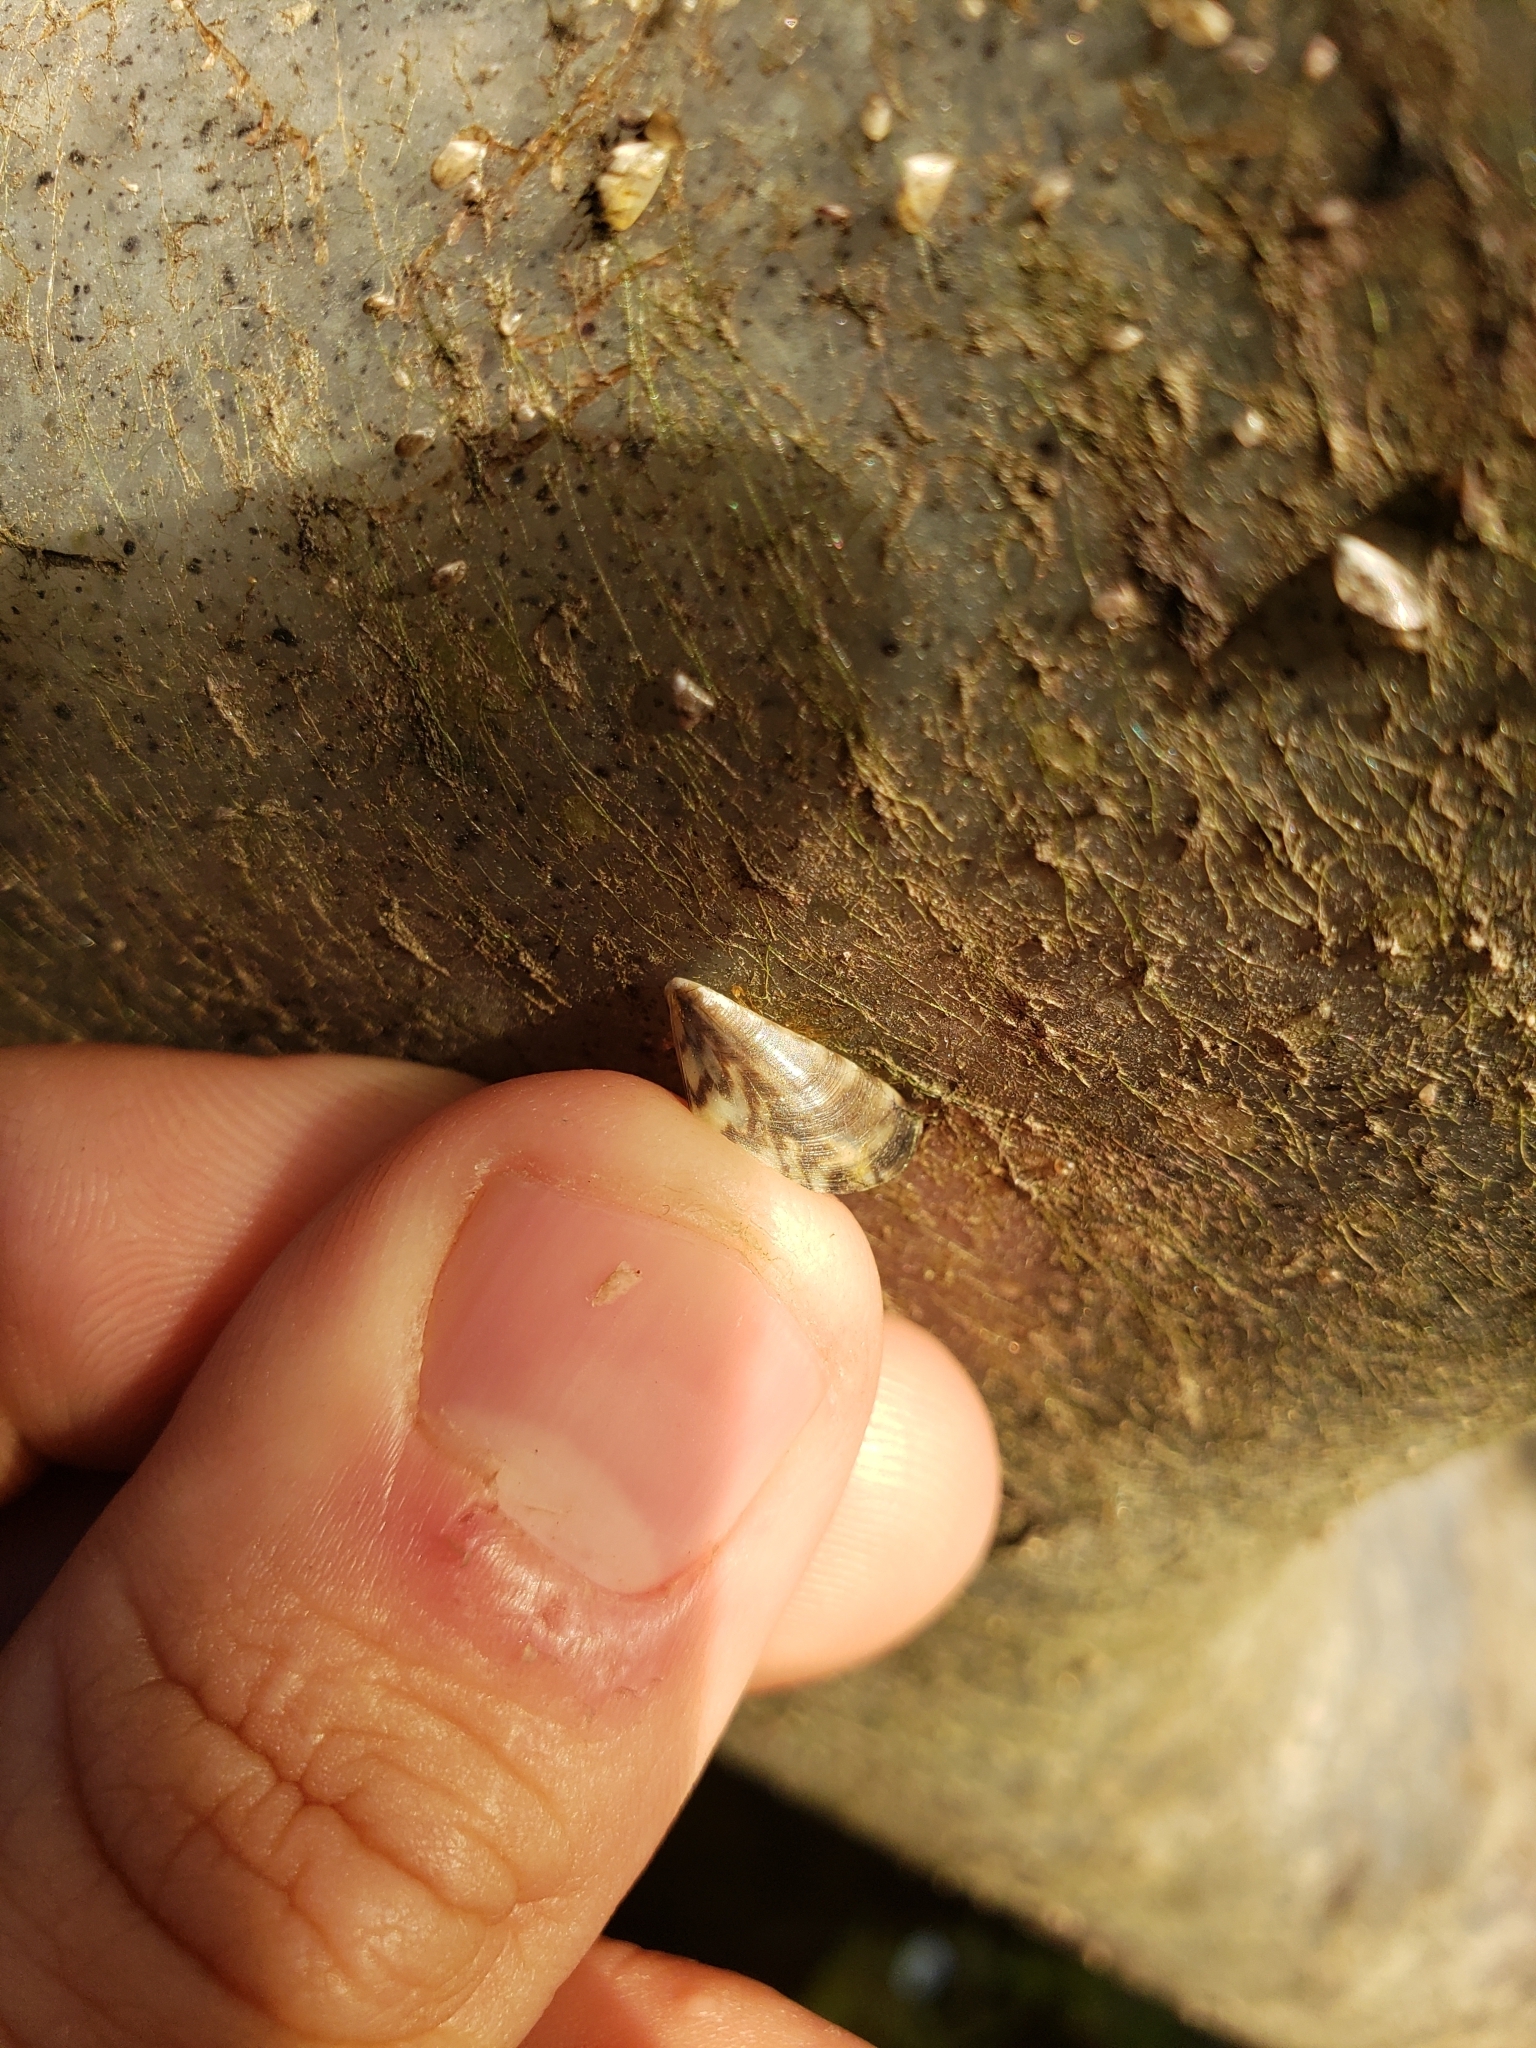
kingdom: Animalia
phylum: Mollusca
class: Bivalvia
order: Myida
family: Dreissenidae
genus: Dreissena
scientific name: Dreissena polymorpha
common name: Zebra mussel
